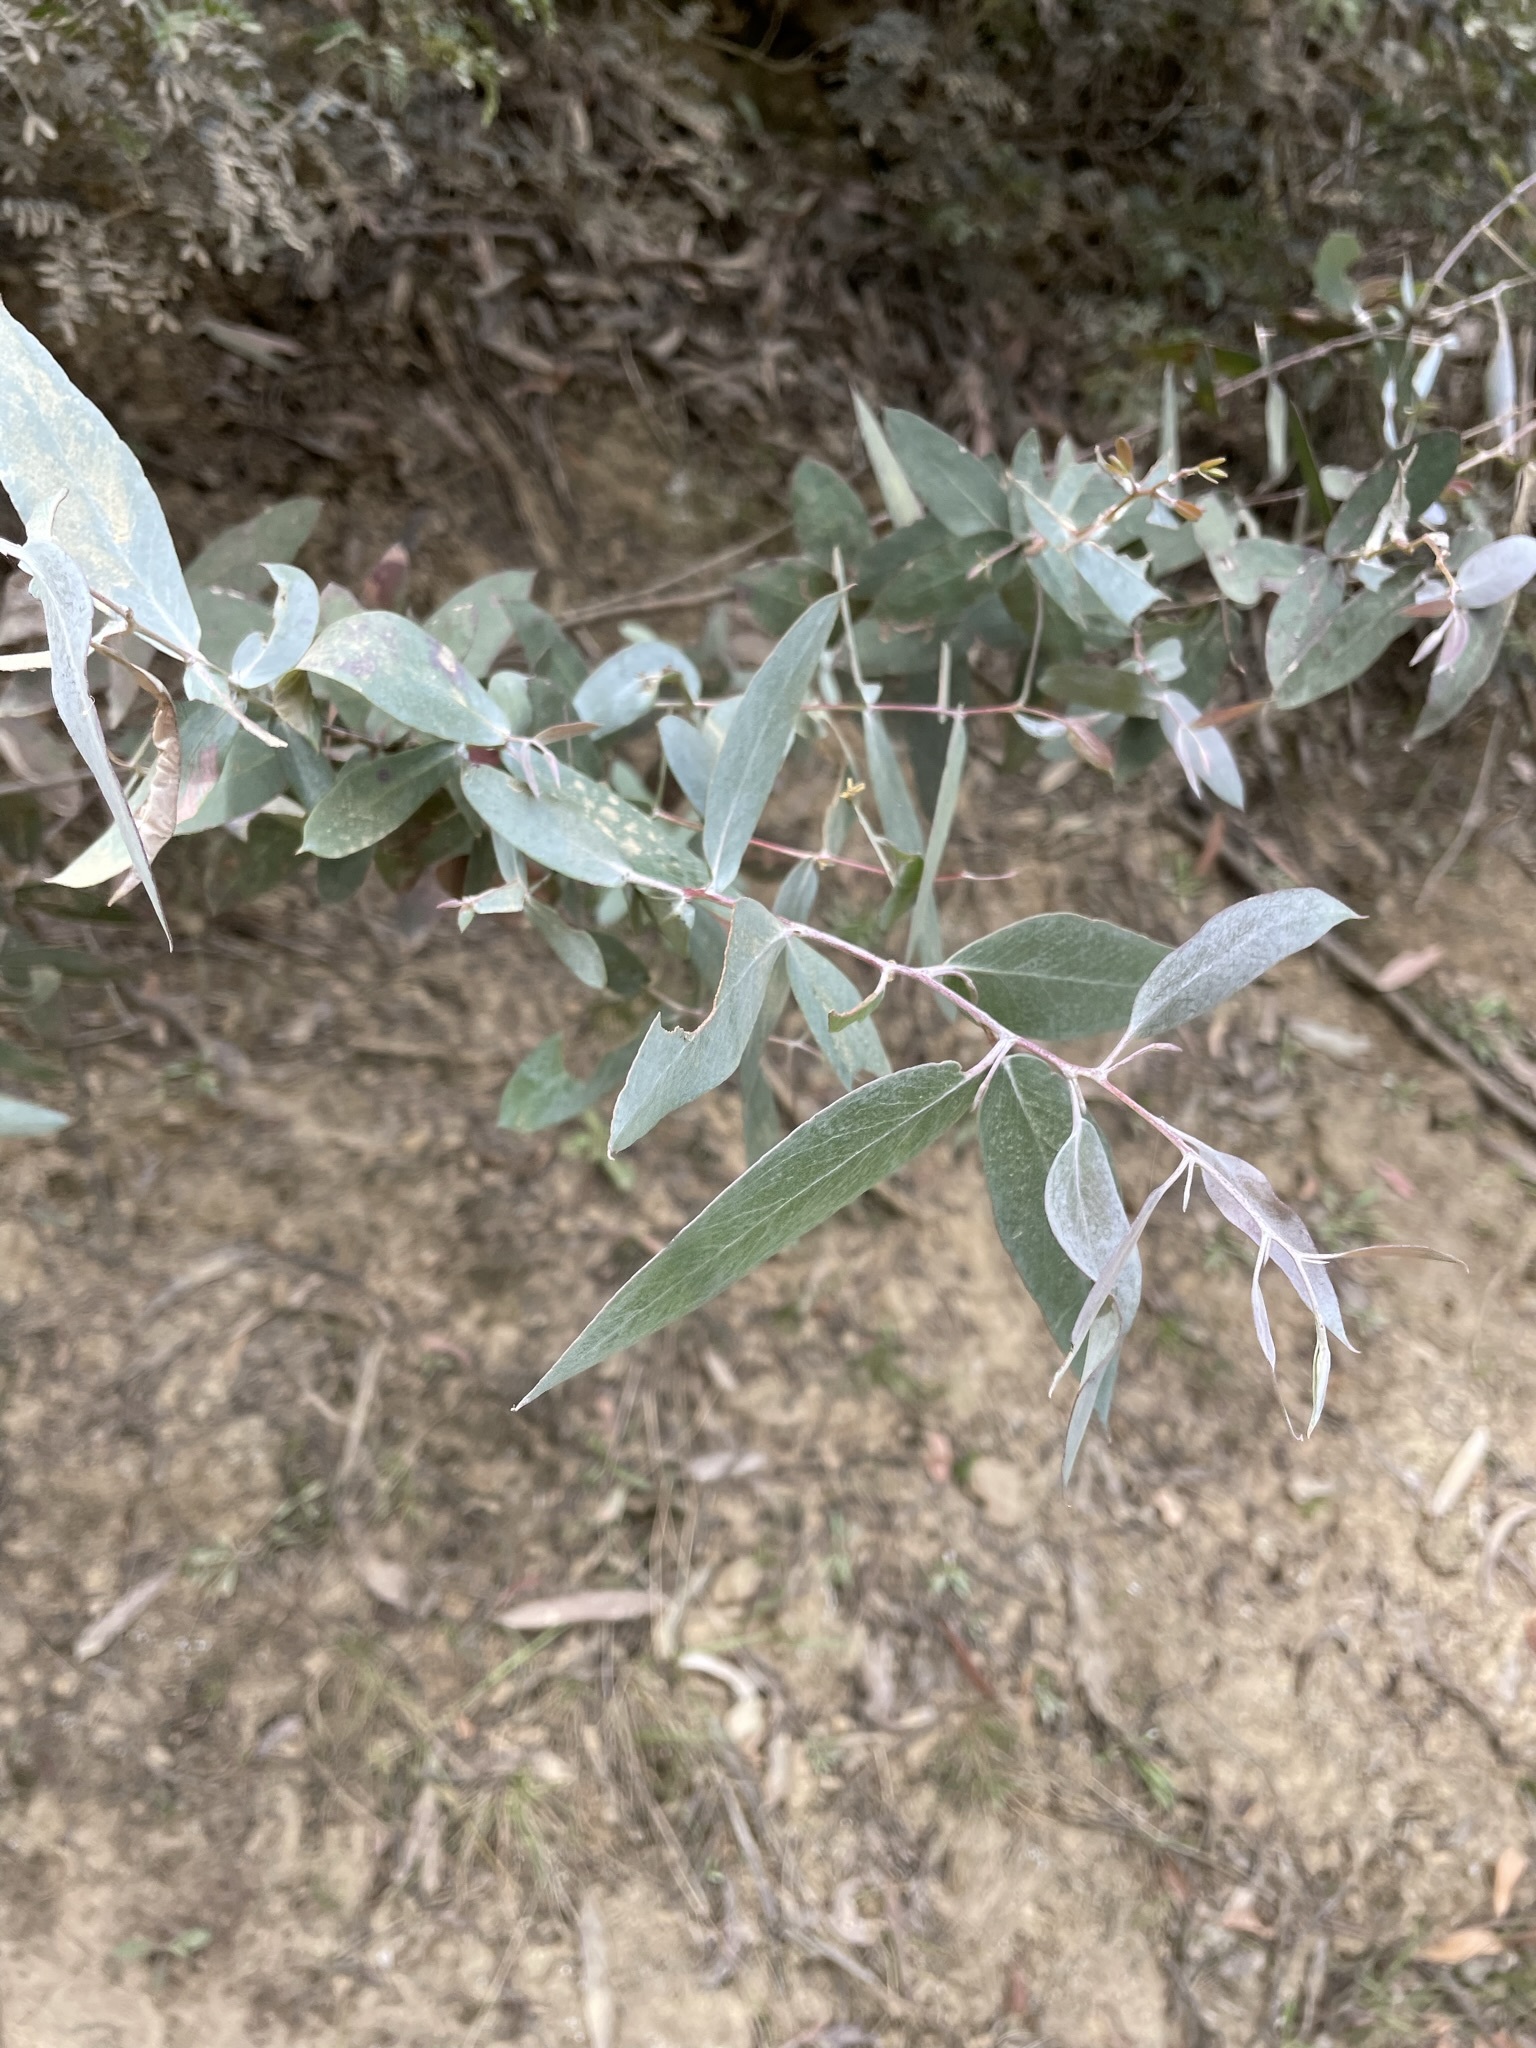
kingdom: Plantae
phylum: Tracheophyta
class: Magnoliopsida
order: Myrtales
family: Myrtaceae
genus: Eucalyptus
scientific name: Eucalyptus tenuiramis
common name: Silver peppermint
